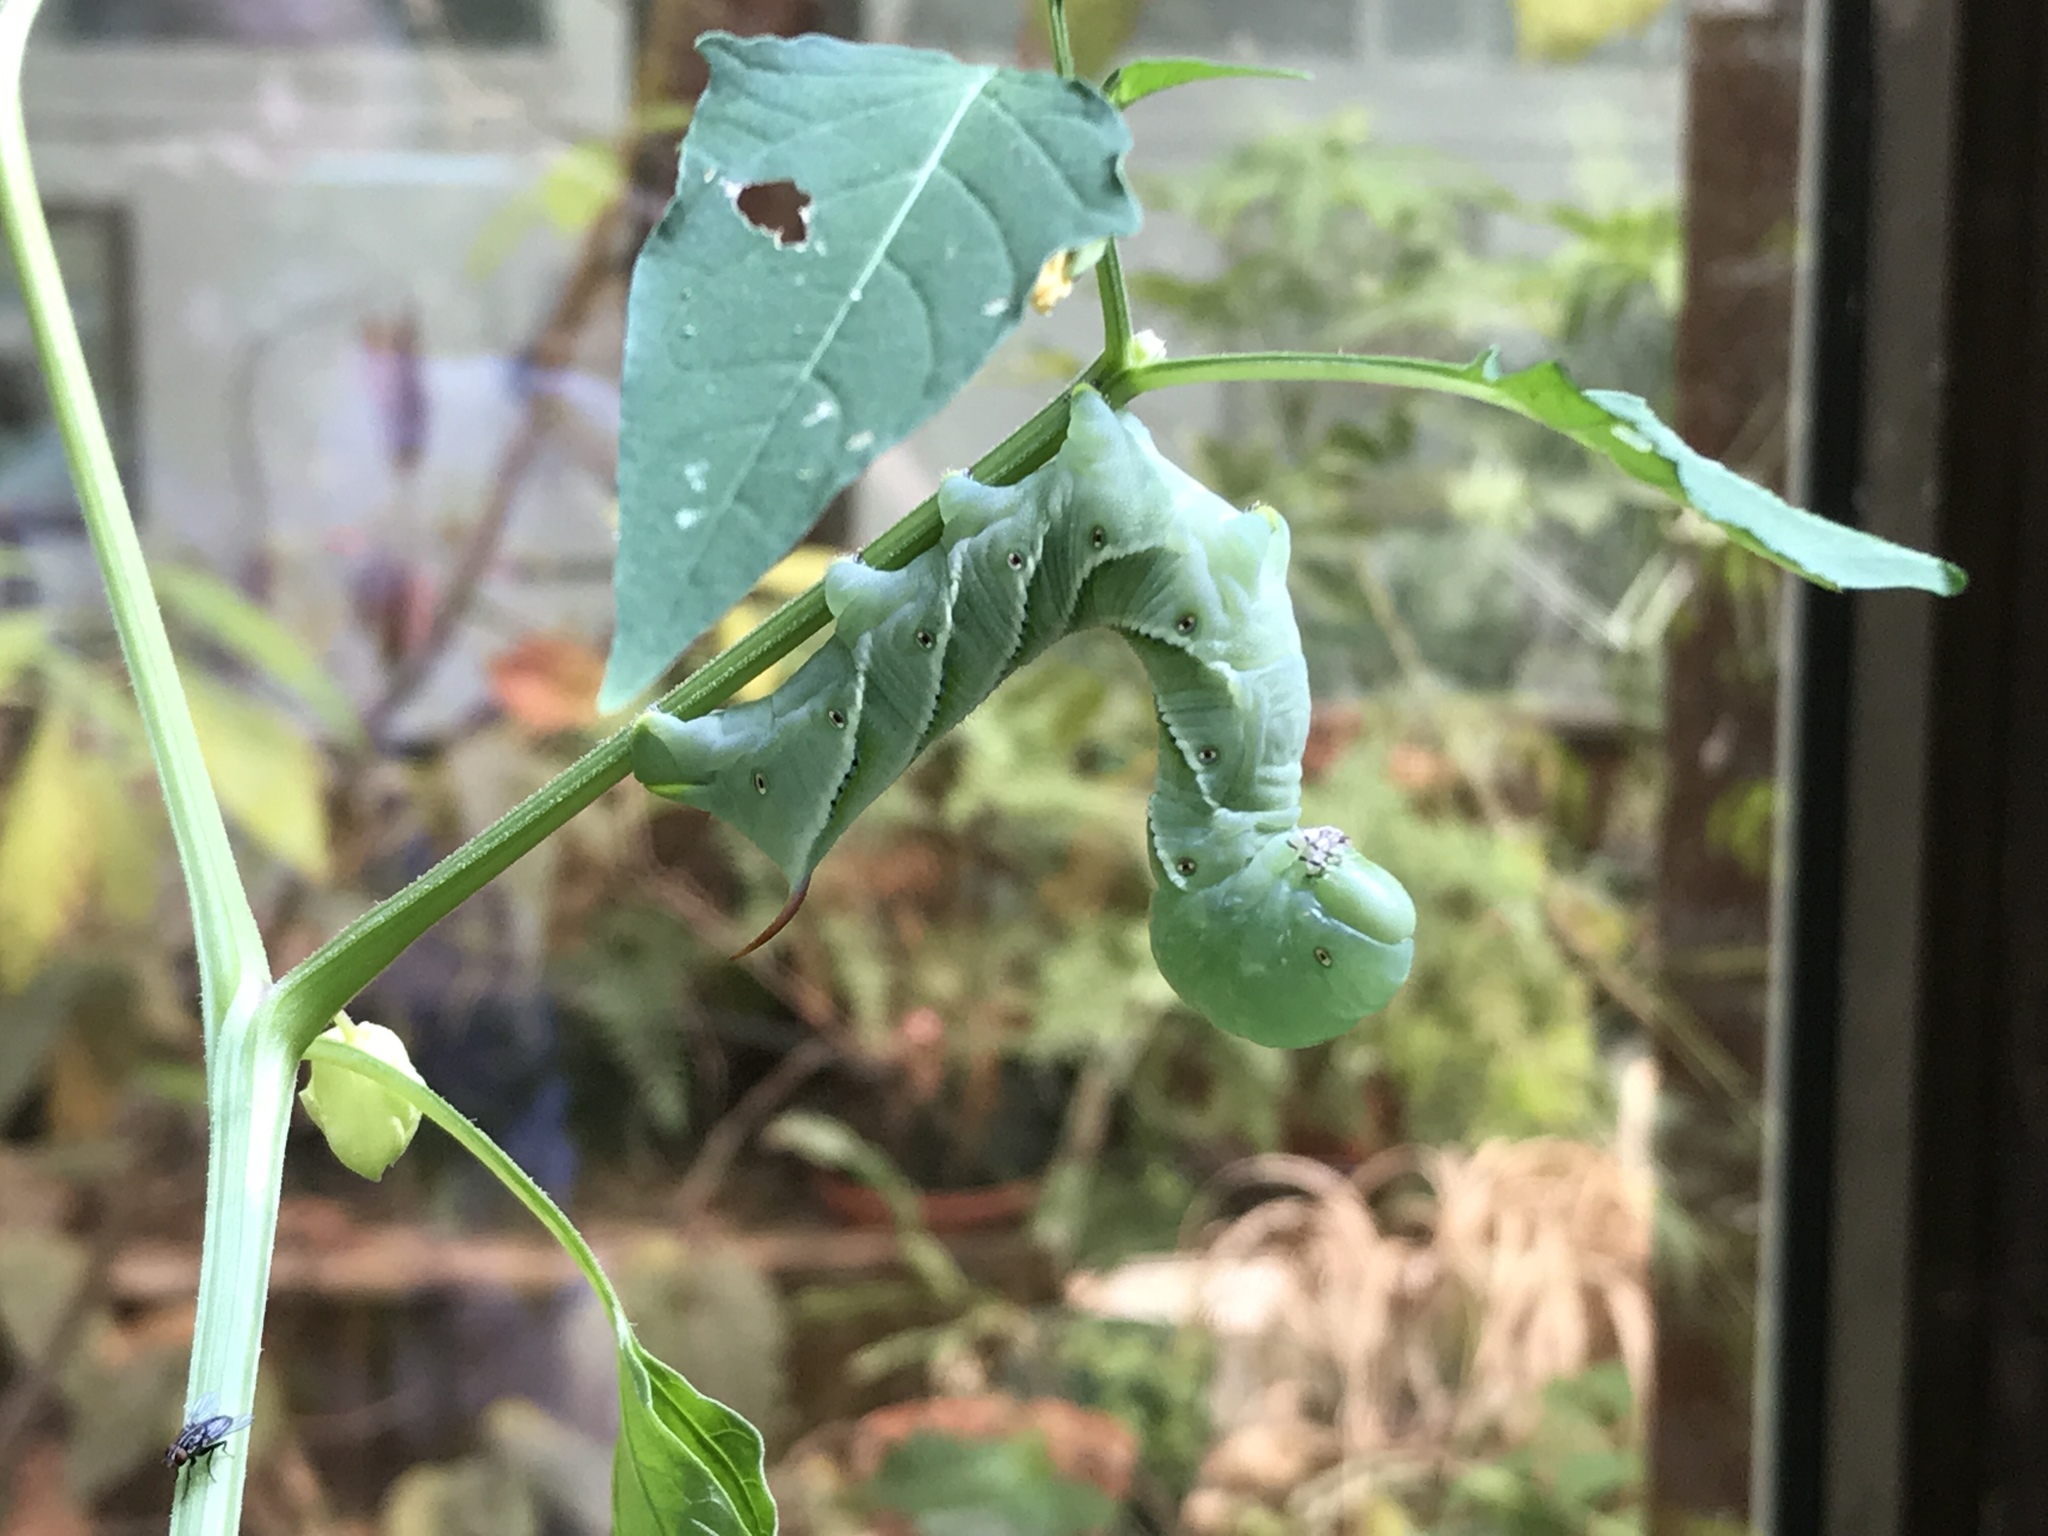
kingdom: Animalia
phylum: Arthropoda
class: Insecta
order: Lepidoptera
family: Sphingidae
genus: Manduca
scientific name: Manduca sexta
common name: Carolina sphinx
